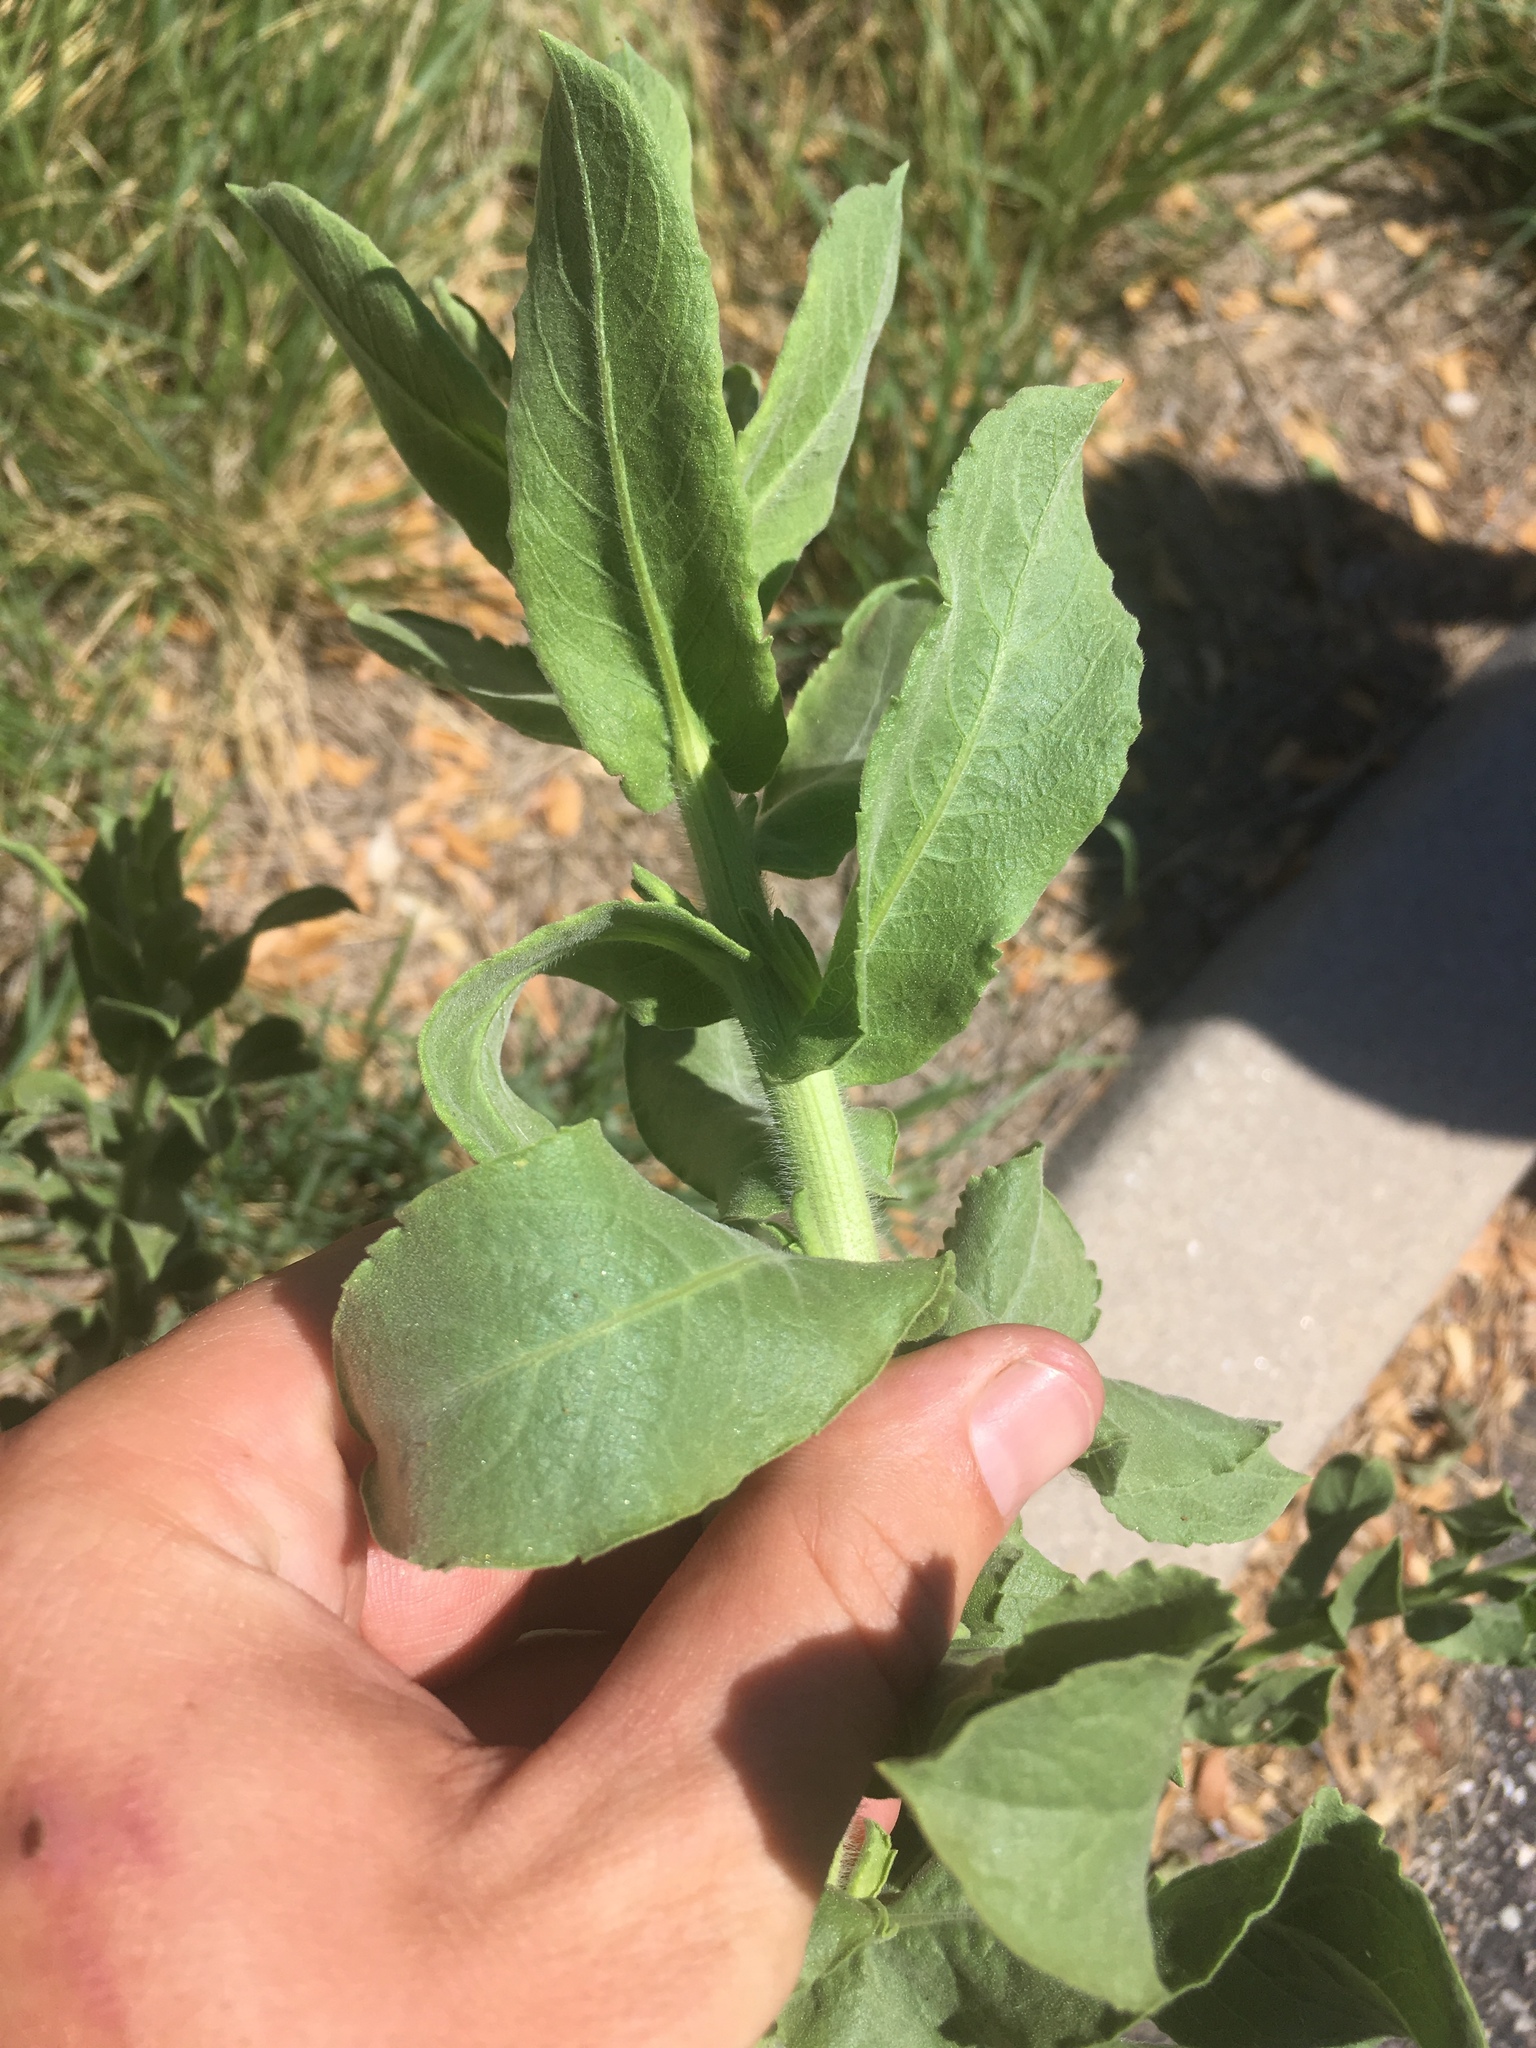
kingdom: Plantae
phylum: Tracheophyta
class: Magnoliopsida
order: Asterales
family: Asteraceae
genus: Heterotheca
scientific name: Heterotheca subaxillaris
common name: Camphorweed
